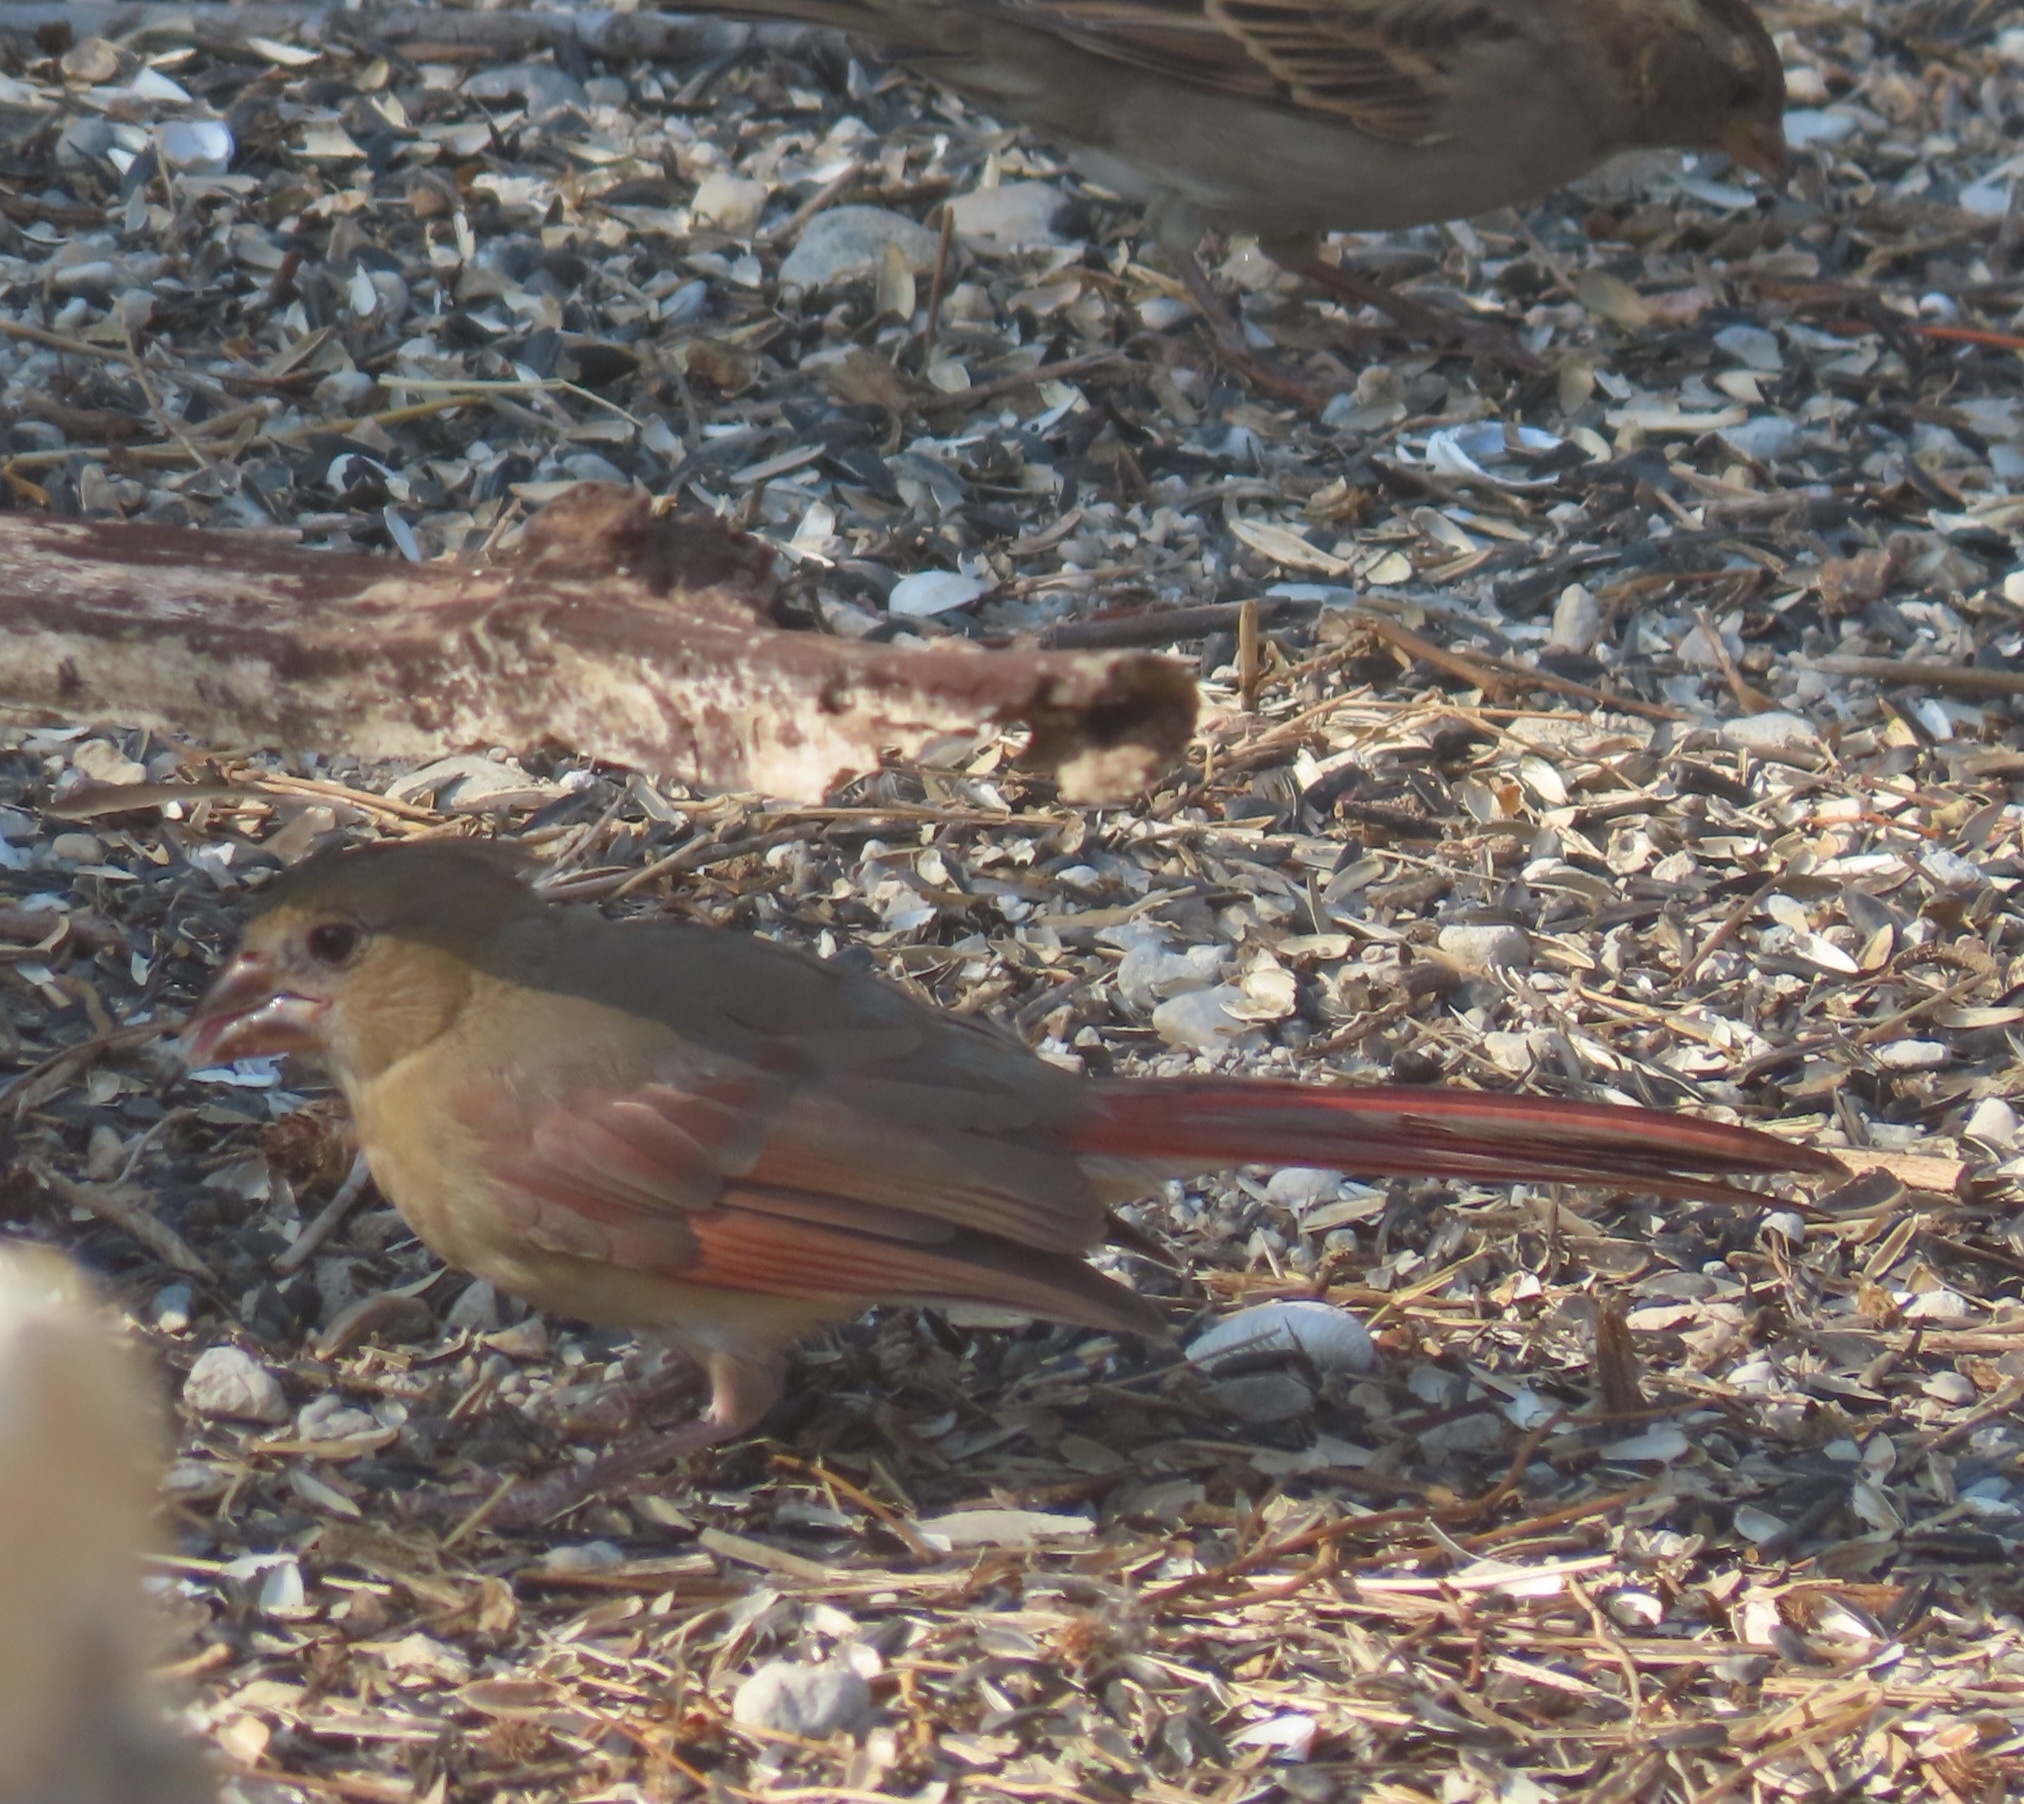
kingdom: Animalia
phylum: Chordata
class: Aves
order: Passeriformes
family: Cardinalidae
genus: Cardinalis
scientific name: Cardinalis cardinalis
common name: Northern cardinal
